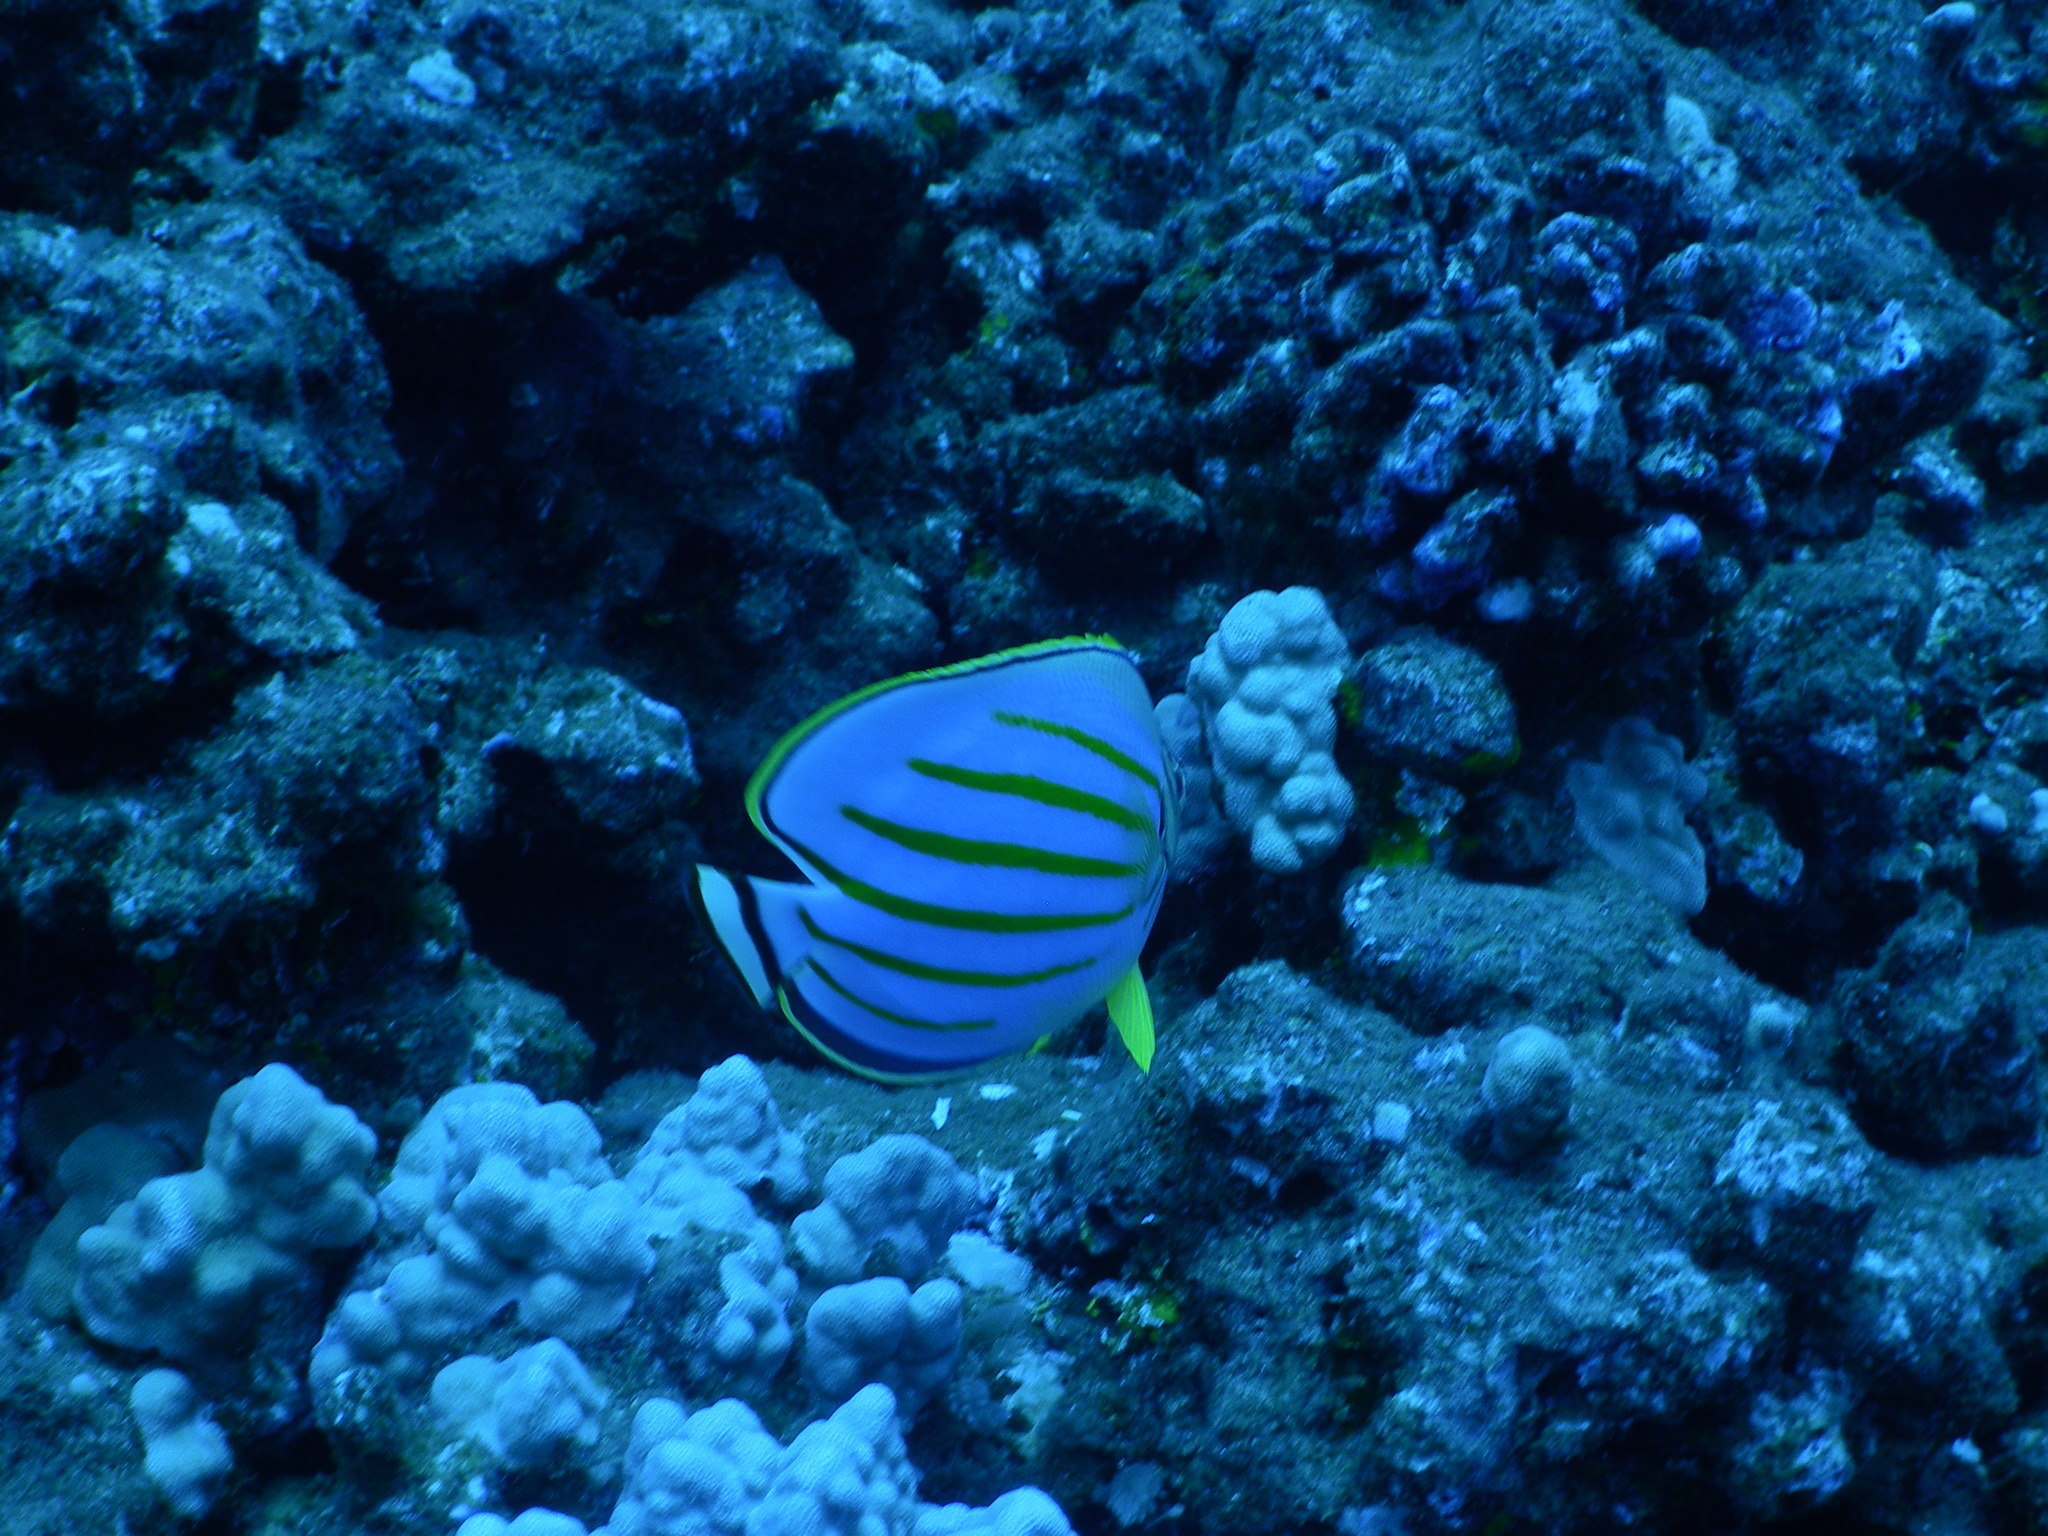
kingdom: Animalia
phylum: Chordata
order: Perciformes
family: Chaetodontidae
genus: Chaetodon
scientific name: Chaetodon ornatissimus
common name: Ornate butterflyfish
